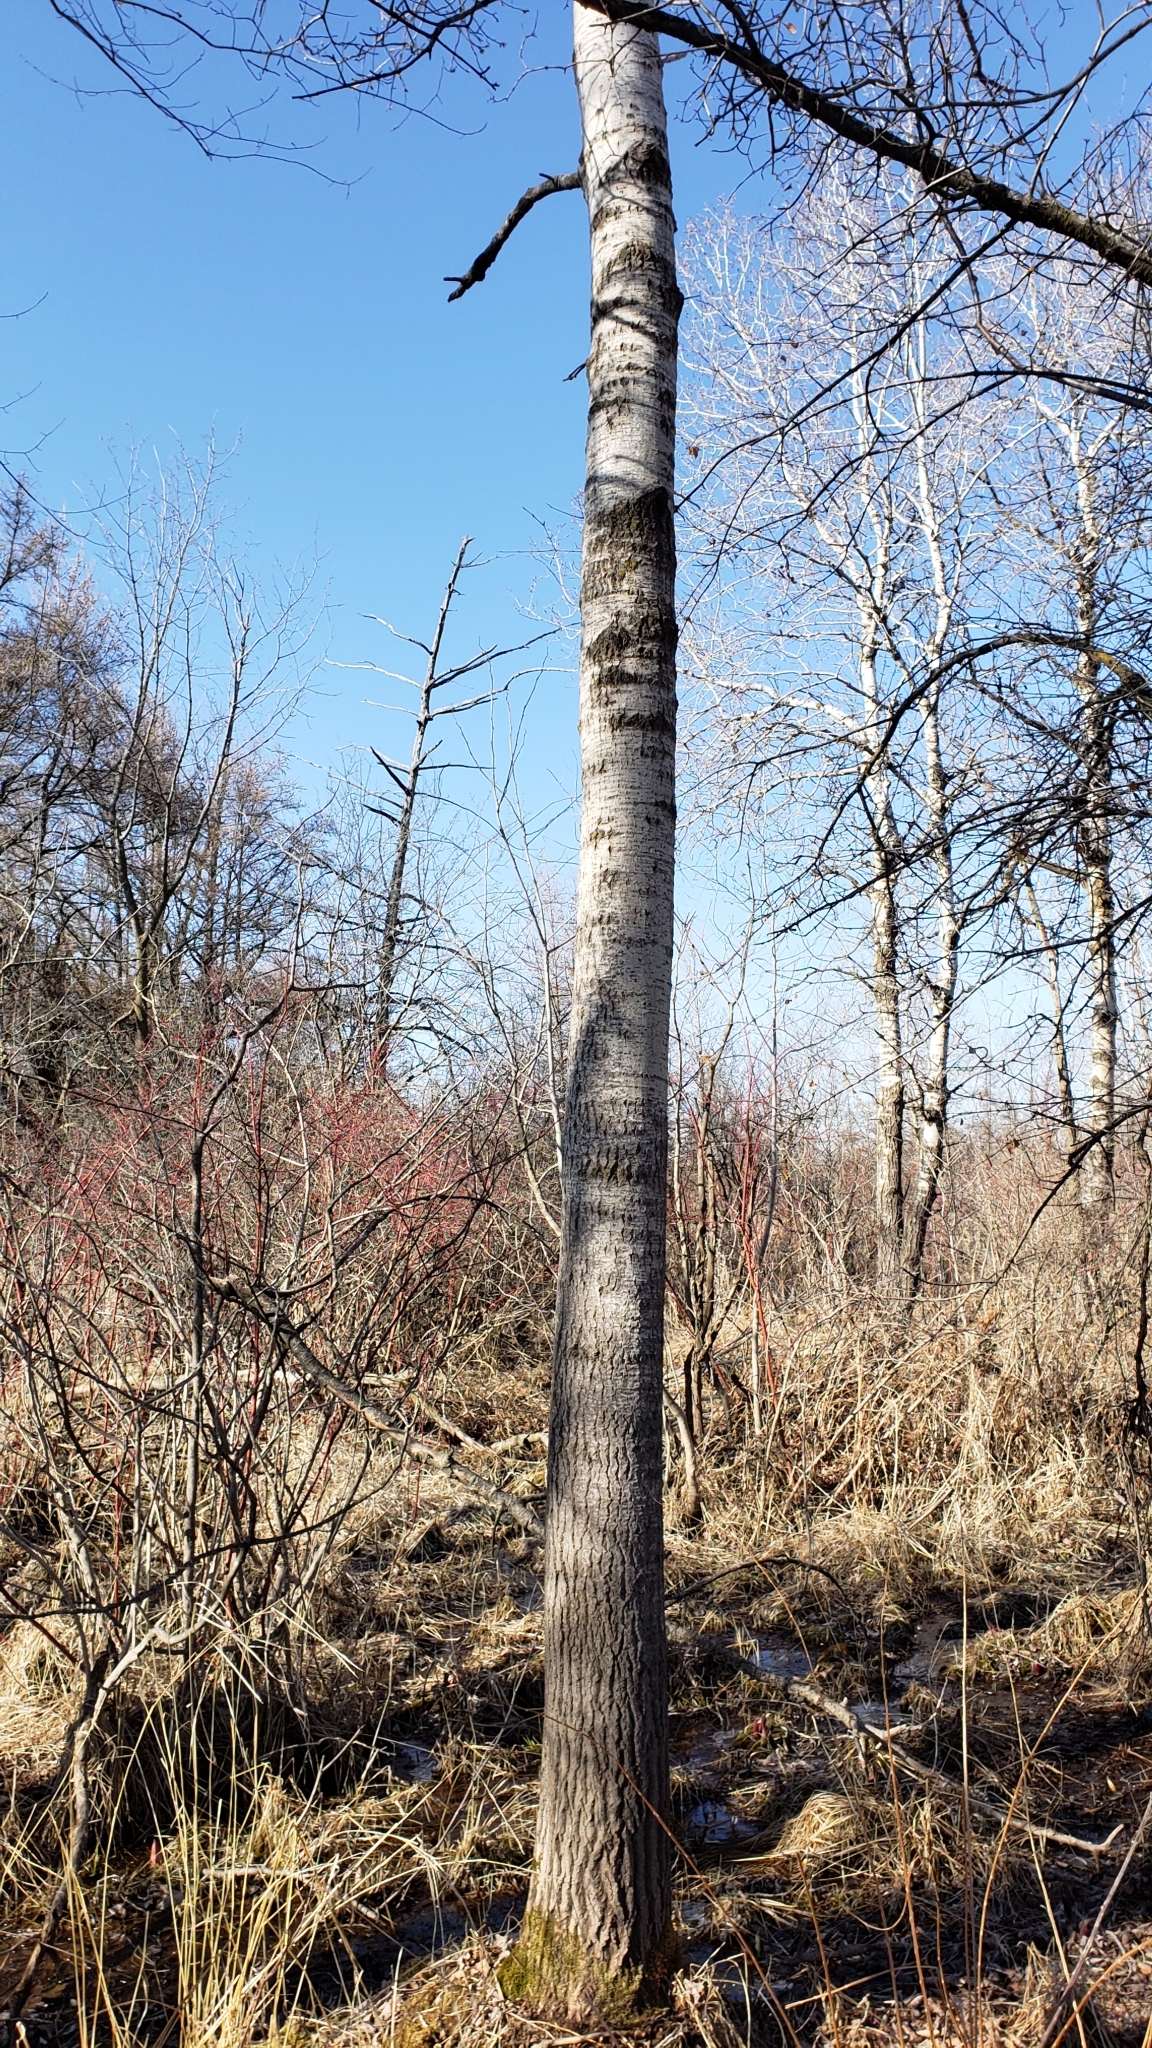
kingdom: Plantae
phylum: Tracheophyta
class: Magnoliopsida
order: Malpighiales
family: Salicaceae
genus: Populus
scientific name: Populus tremuloides
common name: Quaking aspen
